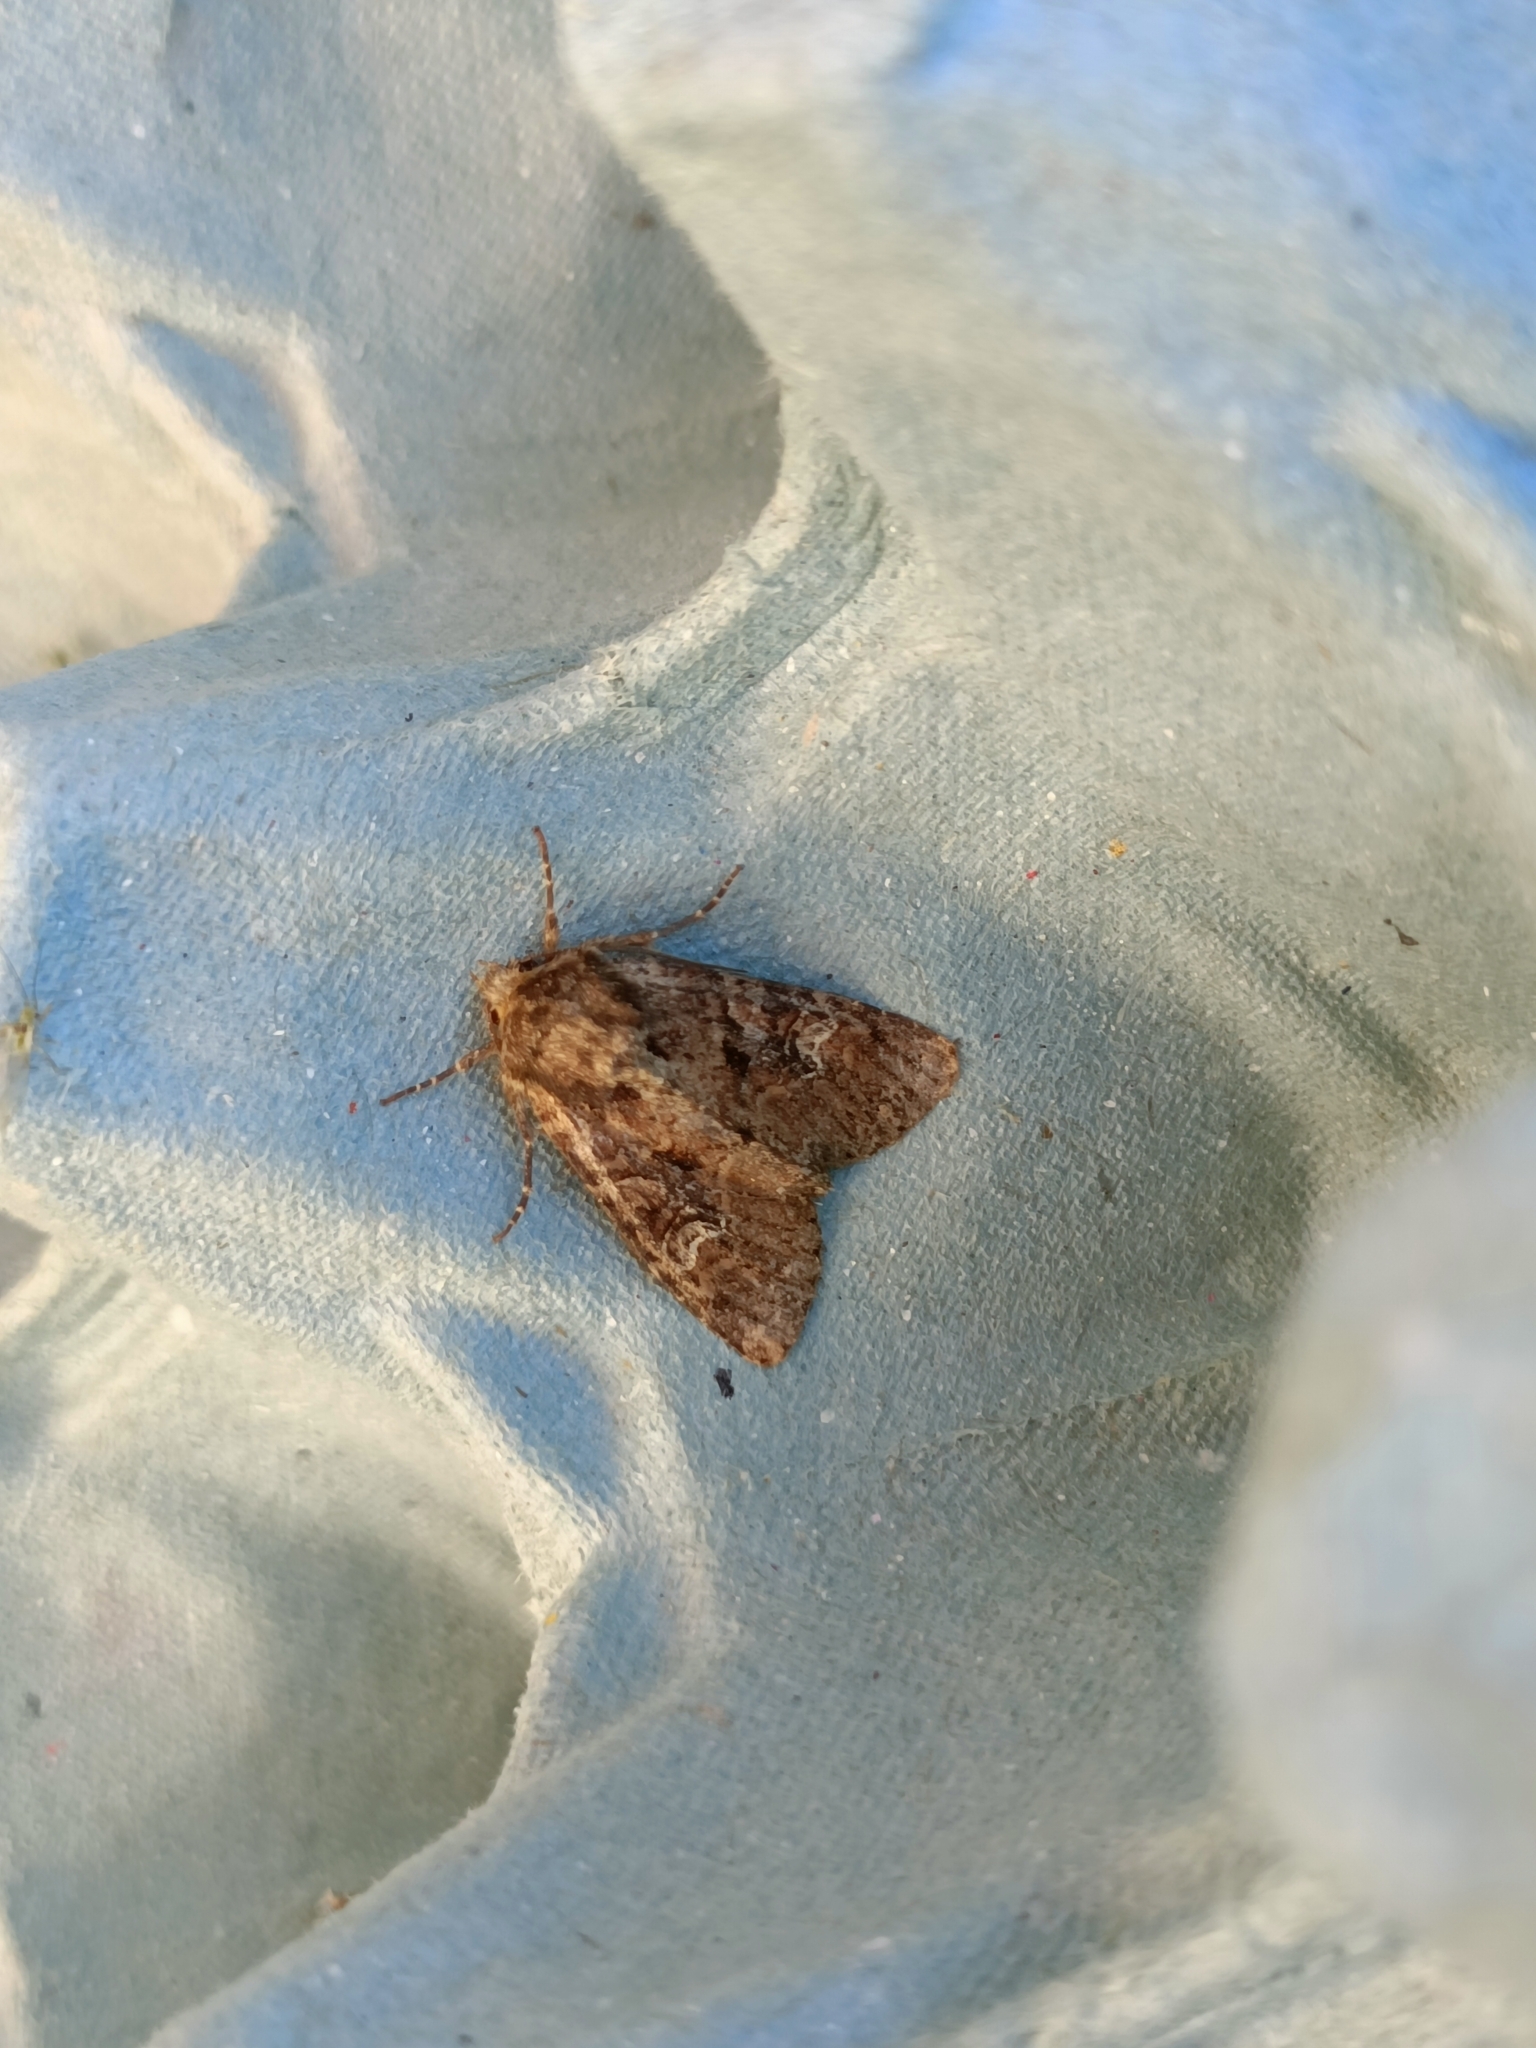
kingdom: Animalia
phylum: Arthropoda
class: Insecta
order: Lepidoptera
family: Noctuidae
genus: Apamea
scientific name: Apamea unanimis
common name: Small clouded brindle
